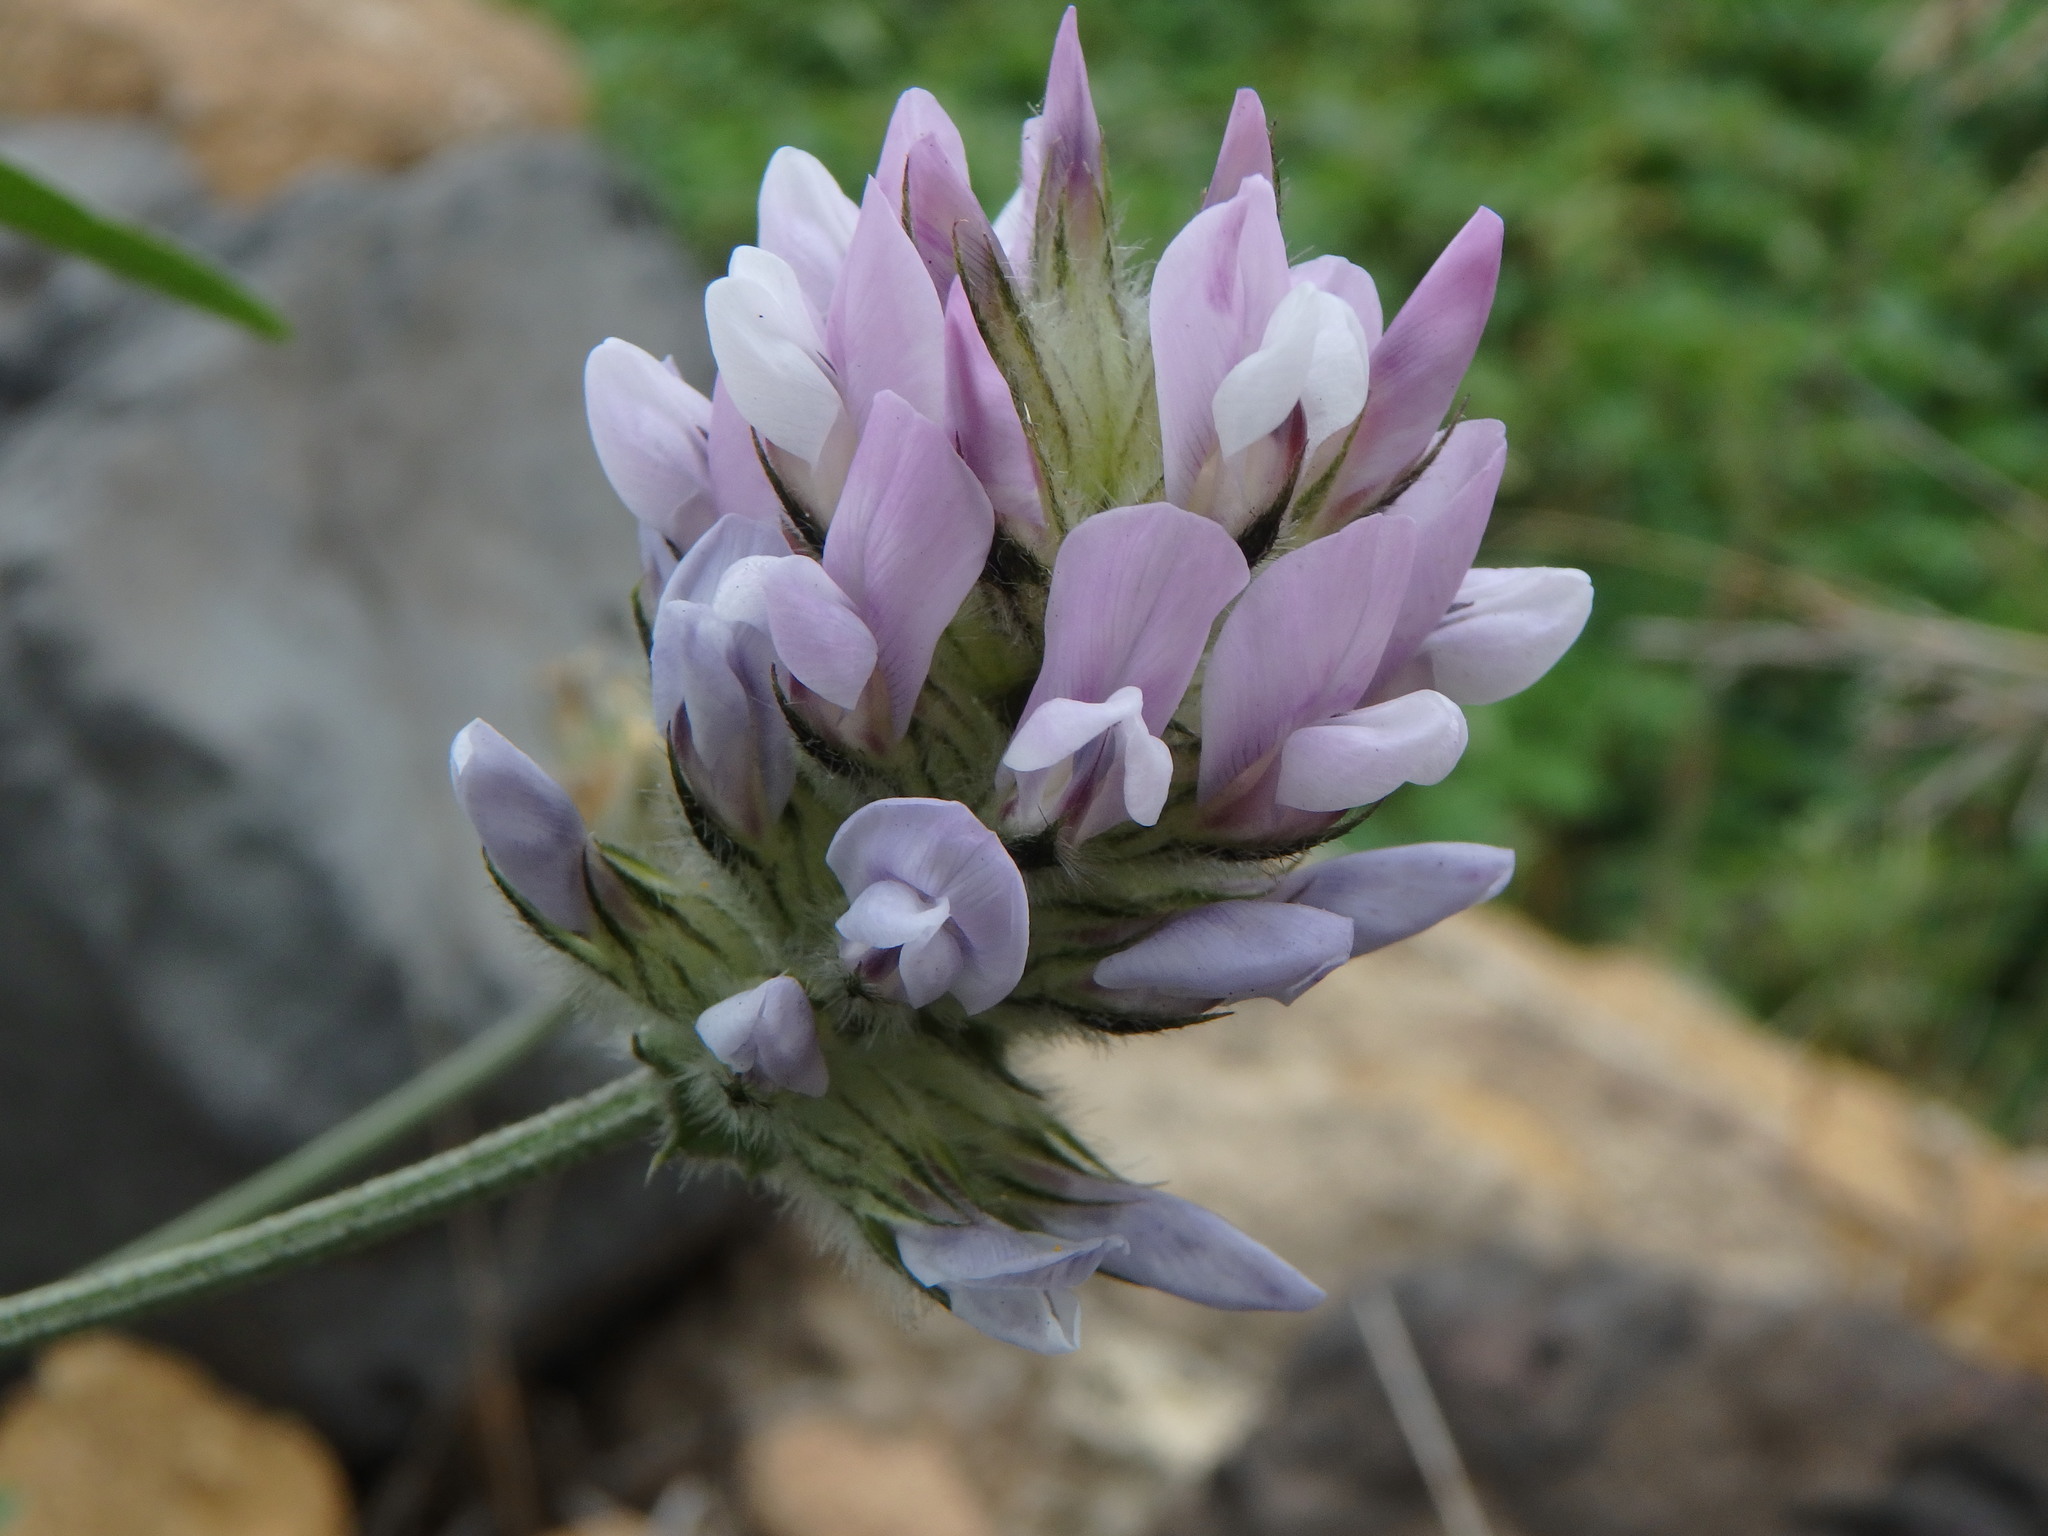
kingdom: Plantae
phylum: Tracheophyta
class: Magnoliopsida
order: Fabales
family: Fabaceae
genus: Bituminaria
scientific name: Bituminaria bituminosa
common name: Arabian pea
